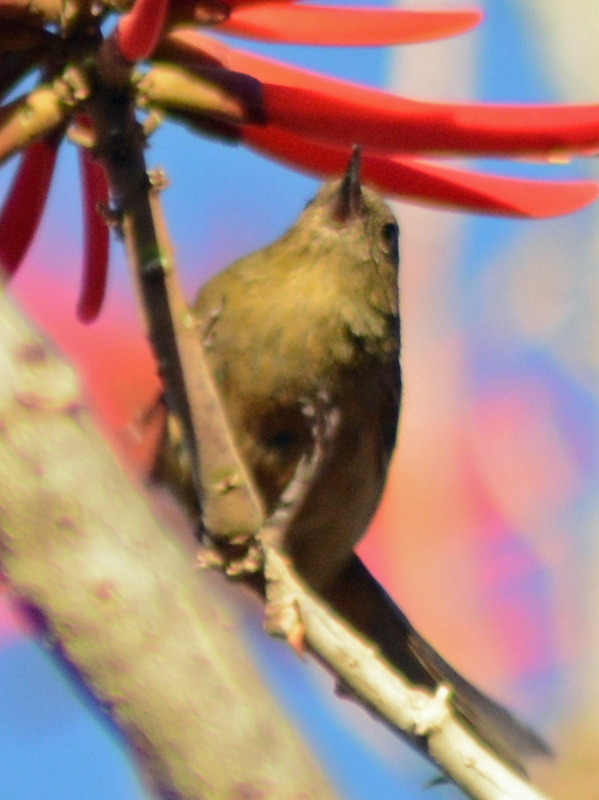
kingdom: Animalia
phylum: Chordata
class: Aves
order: Passeriformes
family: Thraupidae
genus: Diglossa
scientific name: Diglossa baritula
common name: Cinnamon-bellied flowerpiercer
